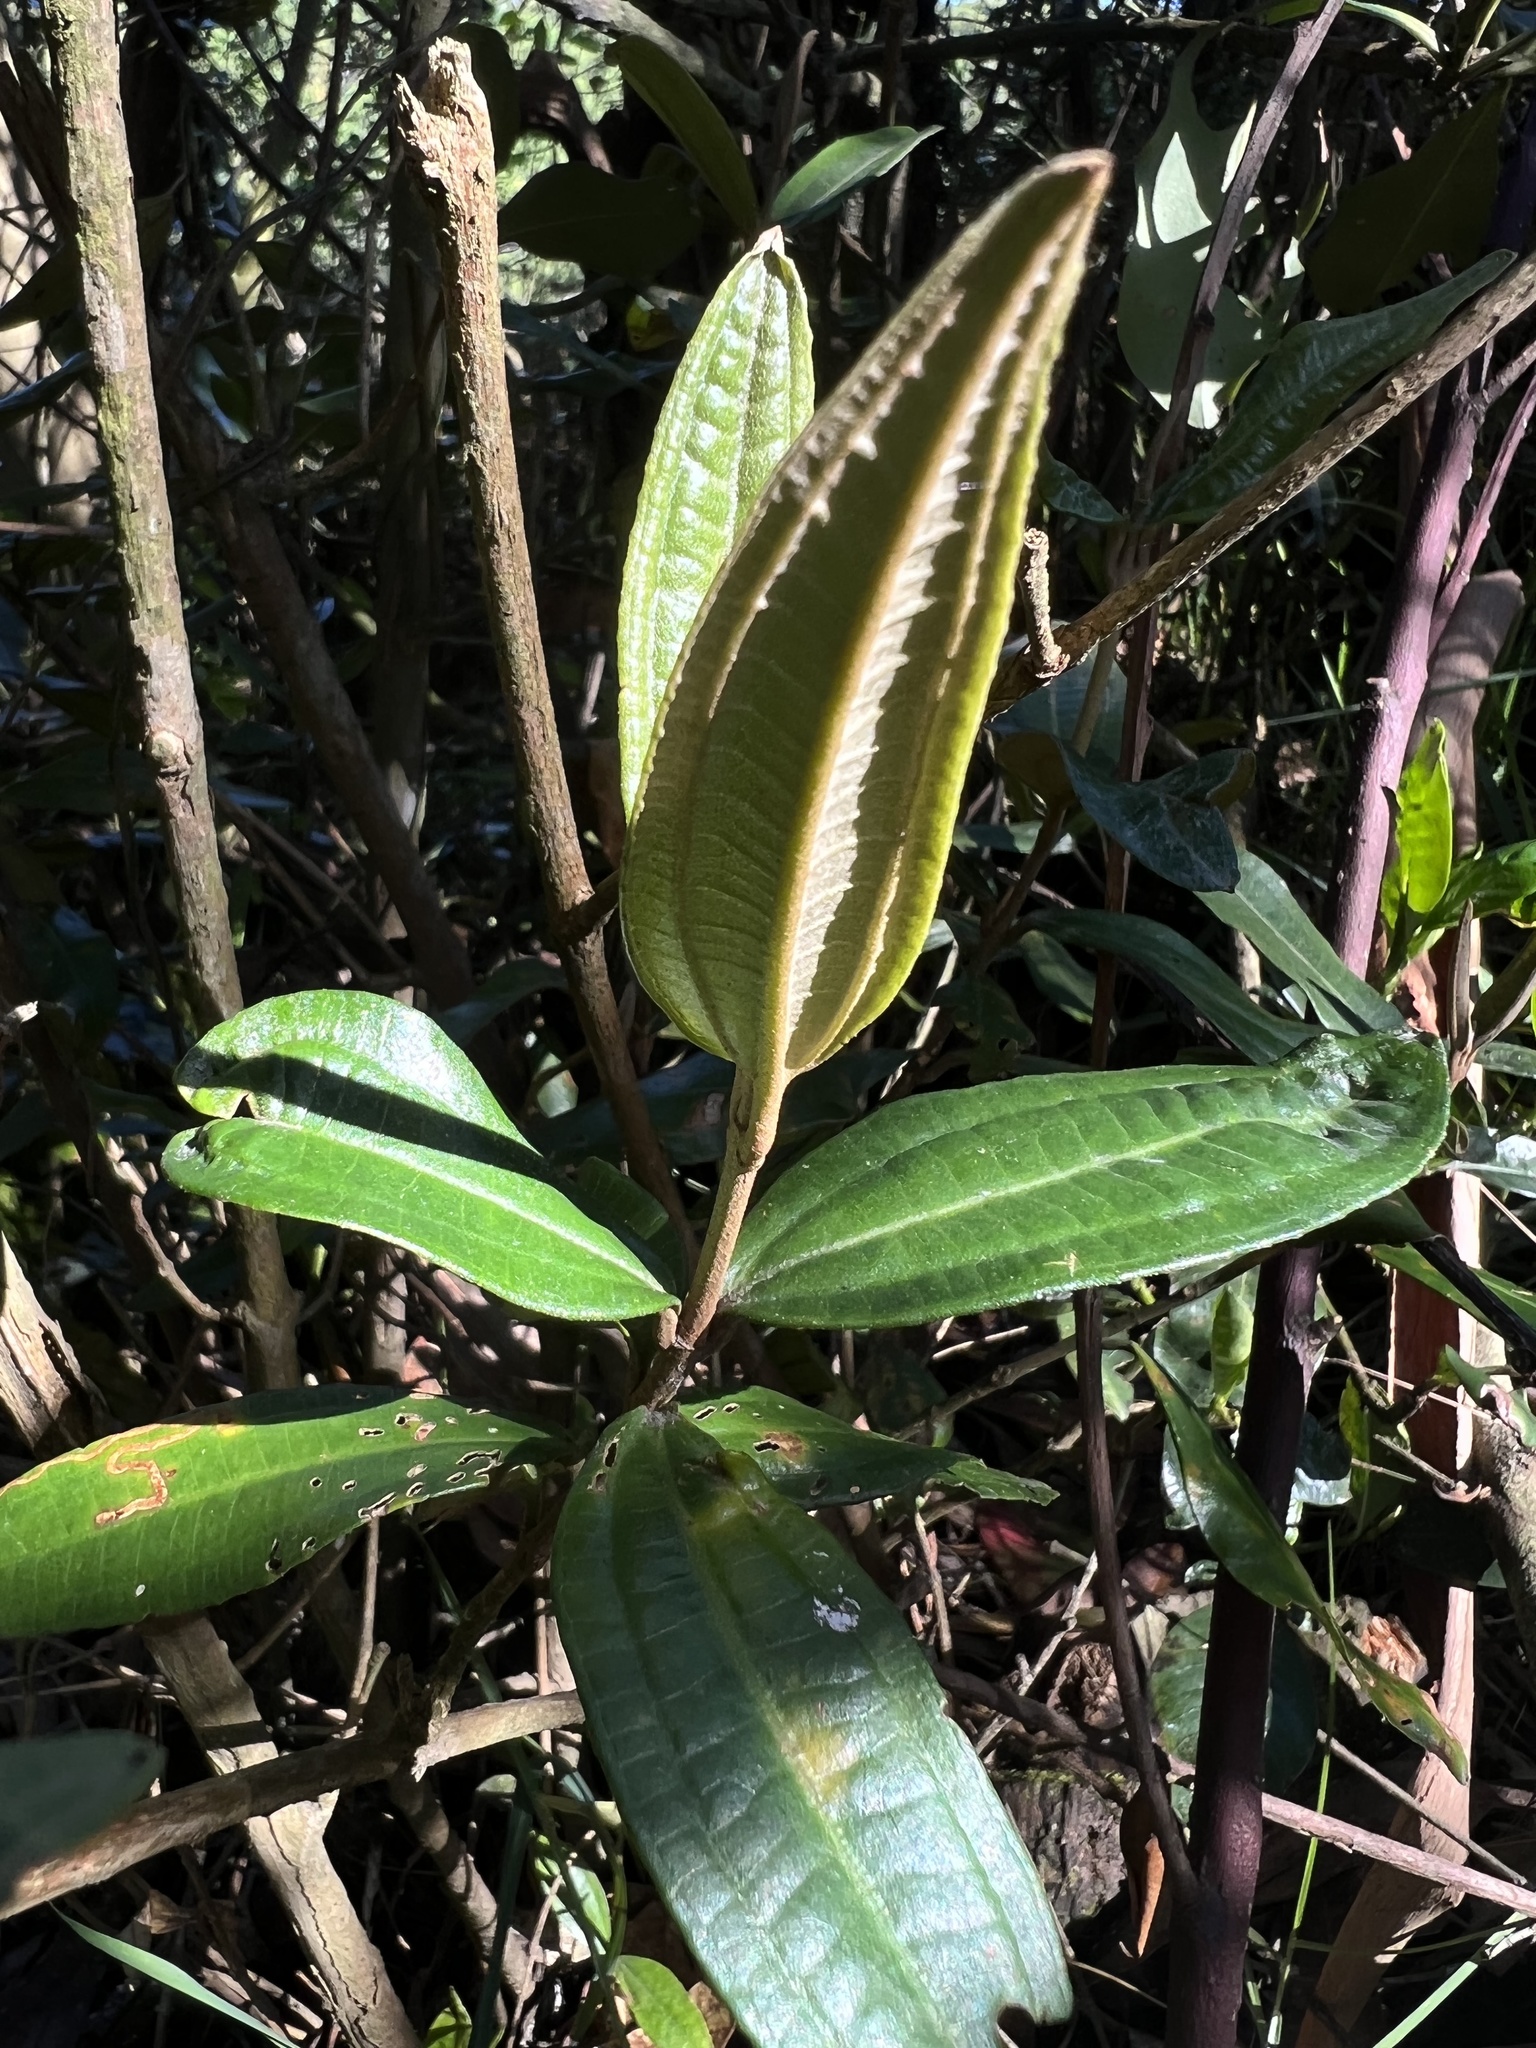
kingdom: Plantae
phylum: Tracheophyta
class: Magnoliopsida
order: Myrtales
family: Melastomataceae
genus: Miconia
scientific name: Miconia squamulosa
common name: Squamulose maya
